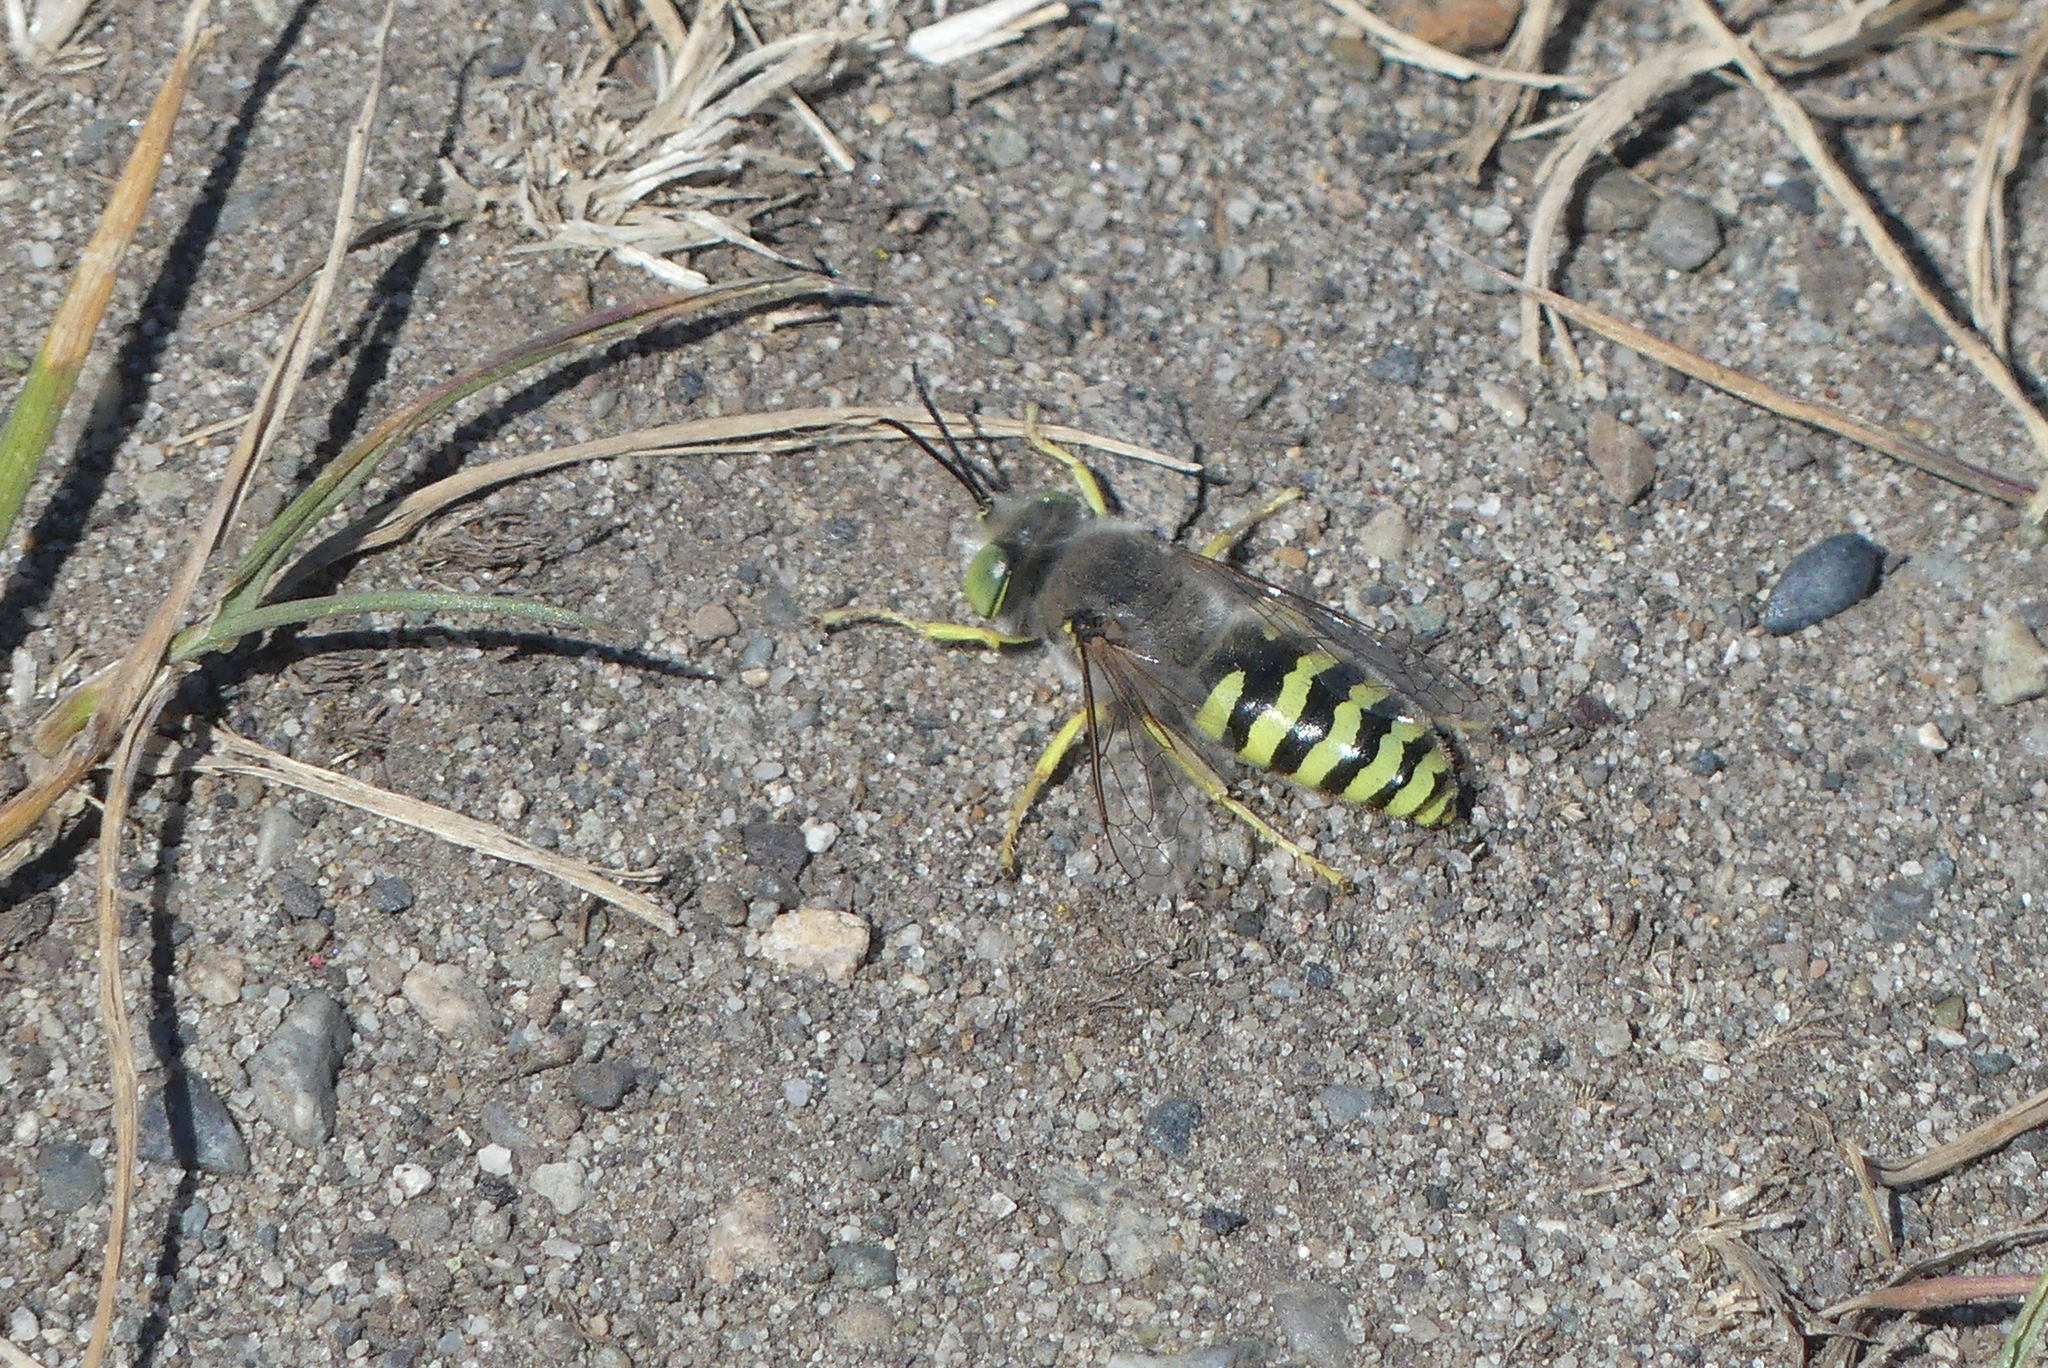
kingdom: Animalia
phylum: Arthropoda
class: Insecta
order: Hymenoptera
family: Crabronidae
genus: Bembix
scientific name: Bembix americana
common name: American sand wasp
